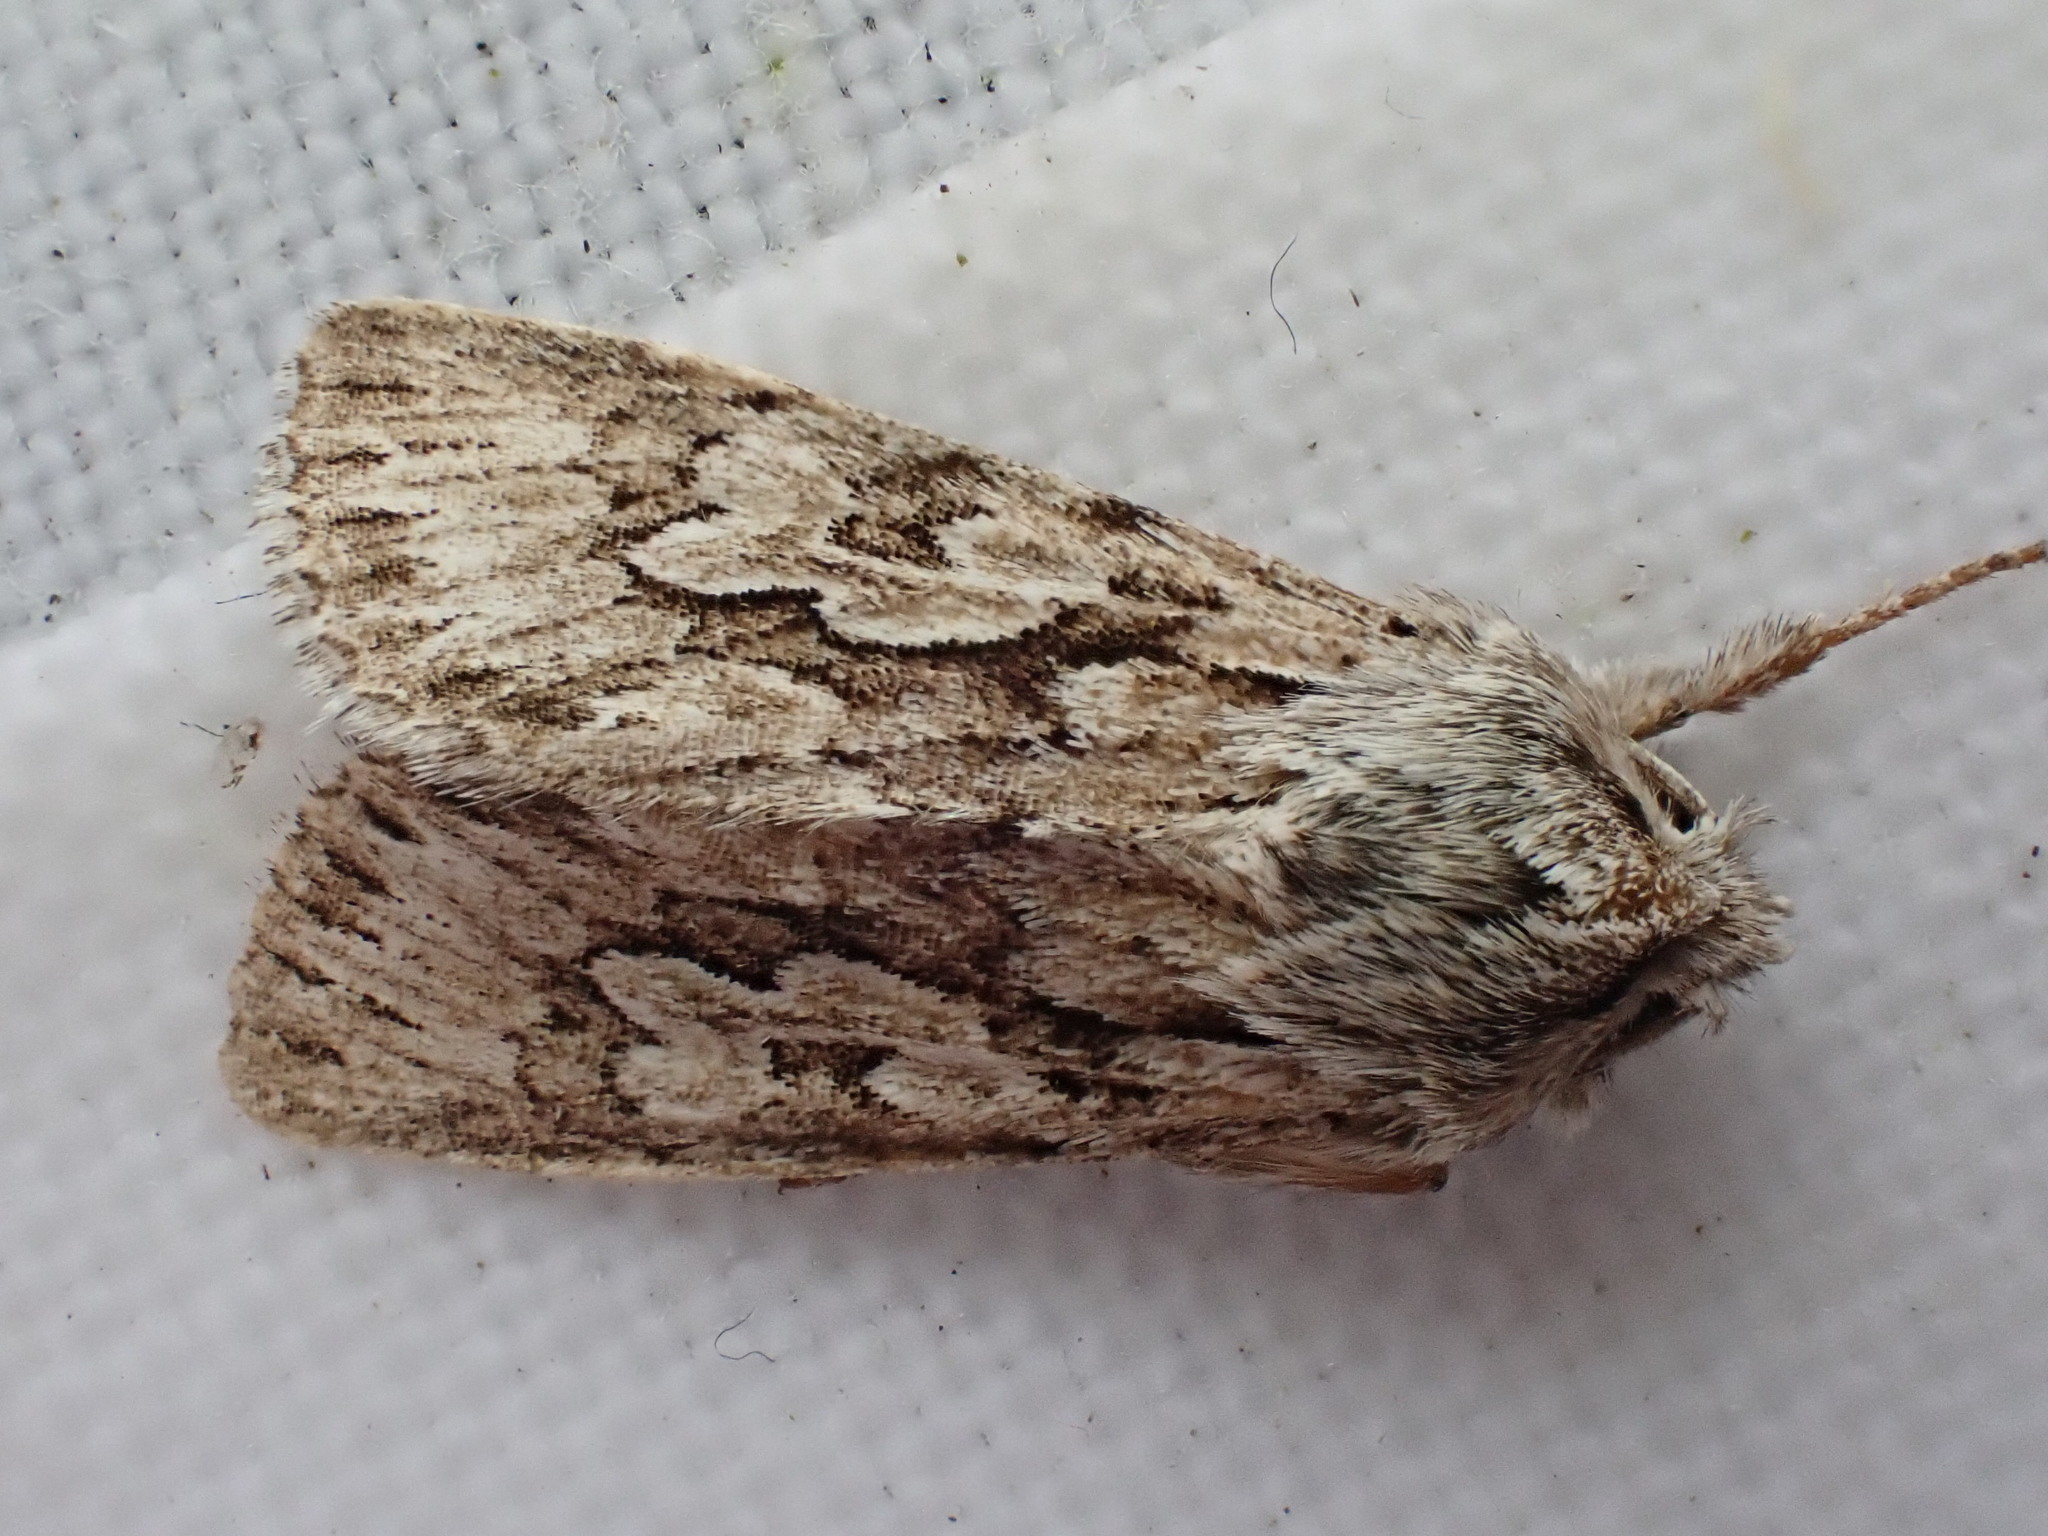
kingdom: Animalia
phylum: Arthropoda
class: Insecta
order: Lepidoptera
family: Noctuidae
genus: Xylocampa
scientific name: Xylocampa areola
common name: Early grey
